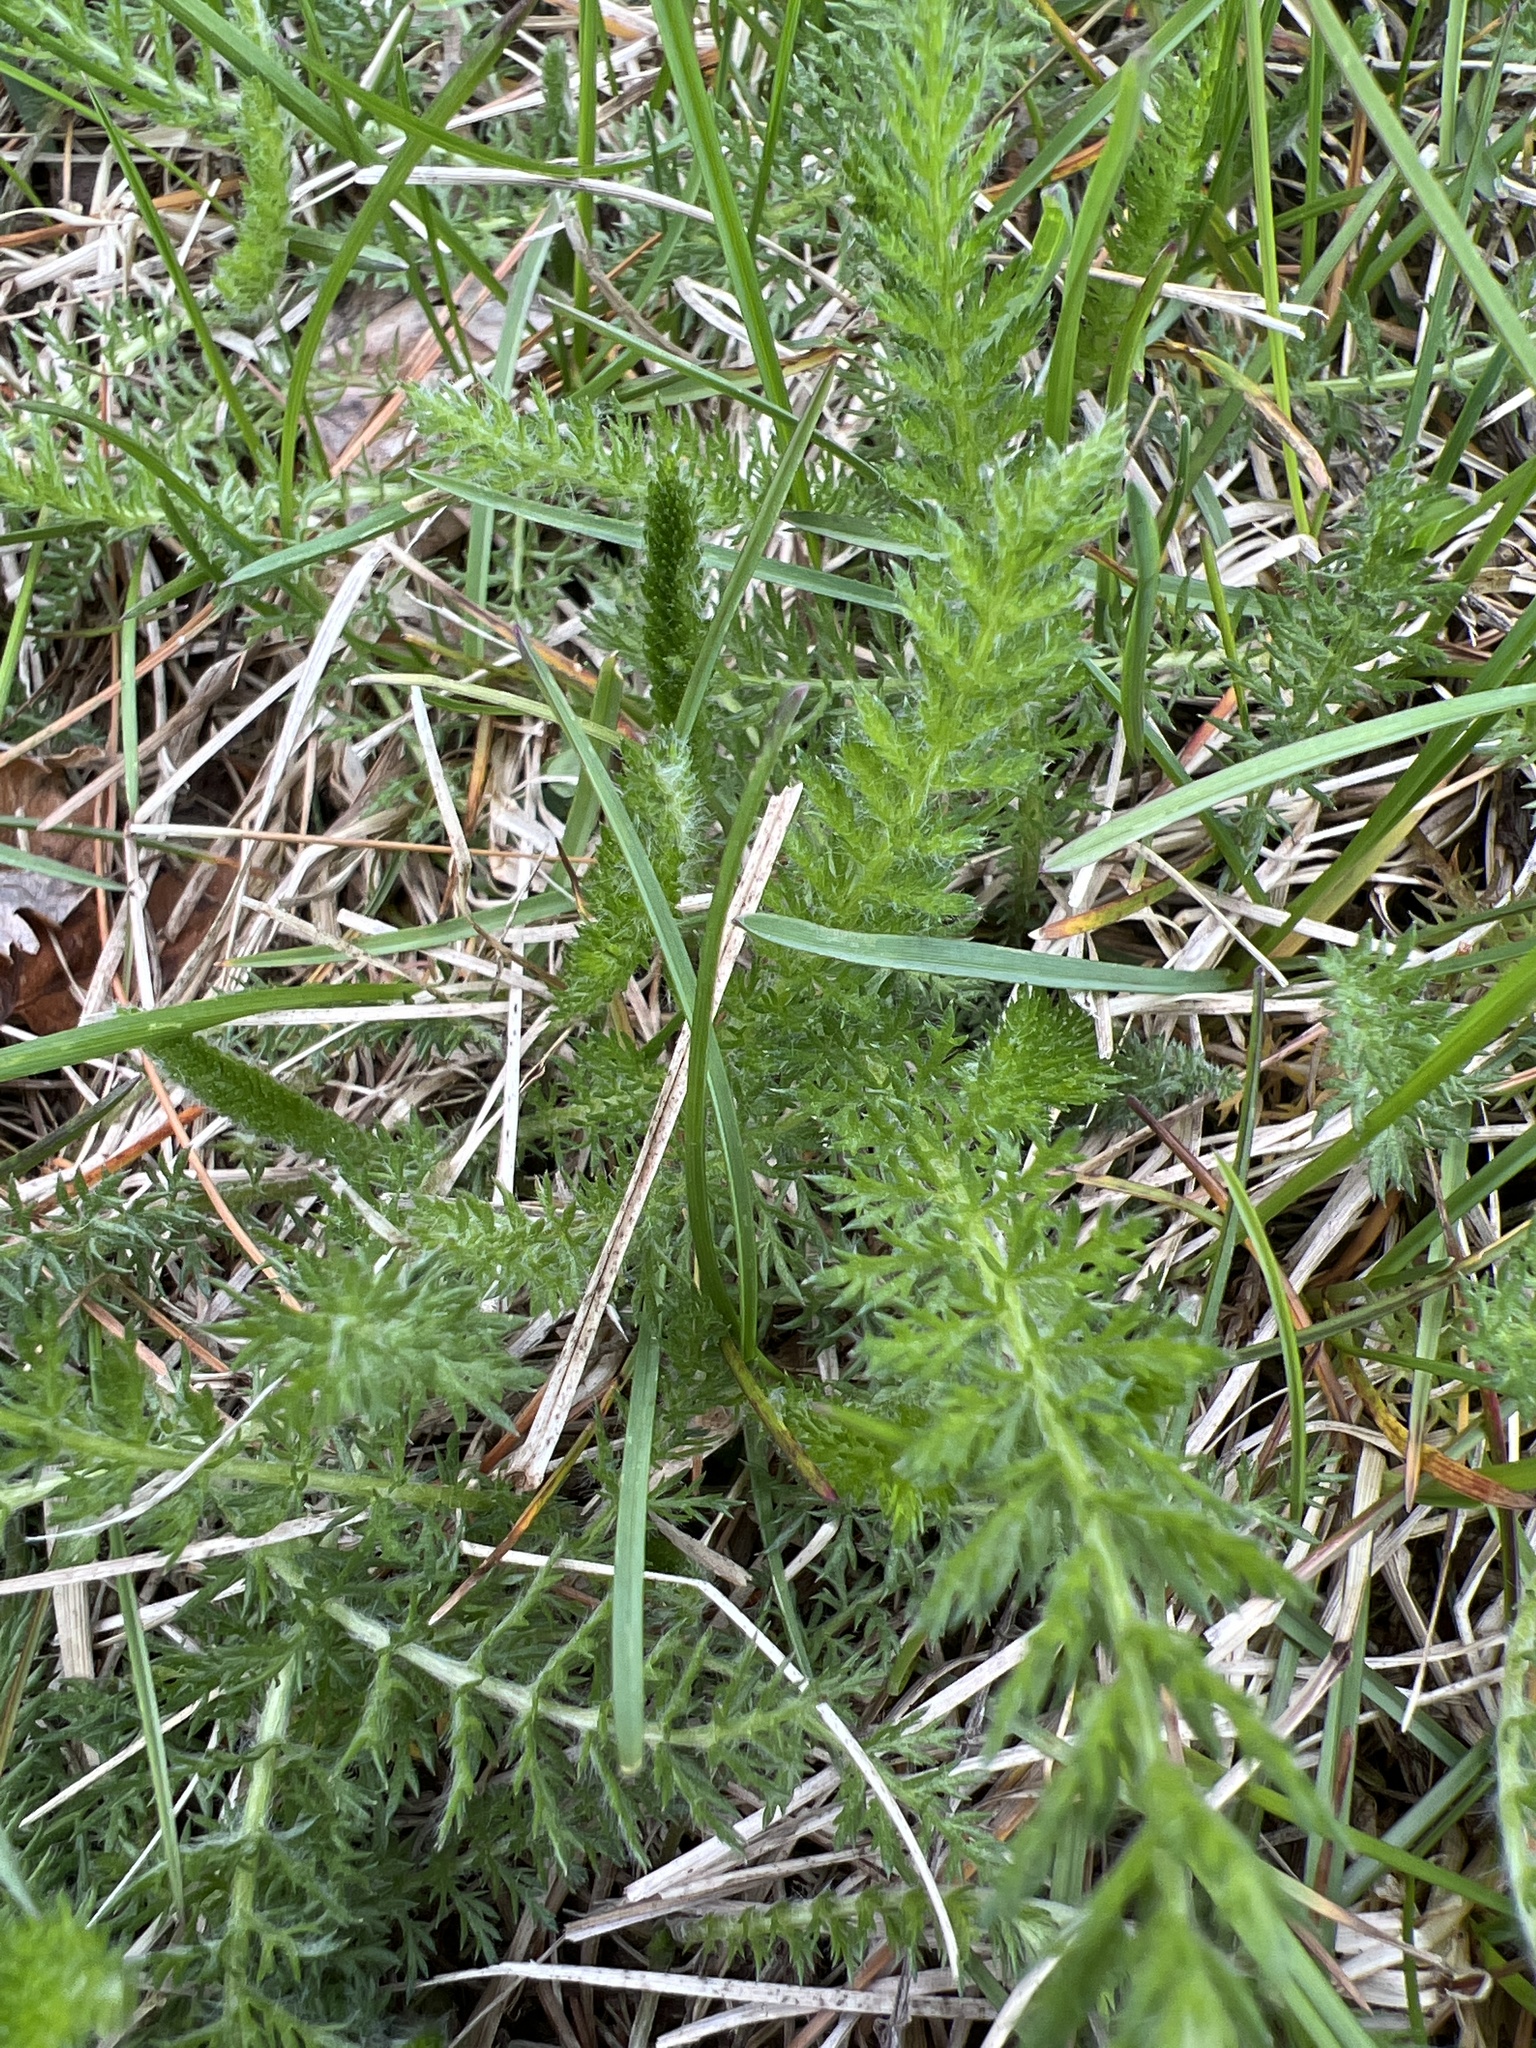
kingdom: Plantae
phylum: Tracheophyta
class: Magnoliopsida
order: Asterales
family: Asteraceae
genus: Achillea
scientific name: Achillea millefolium
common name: Yarrow
